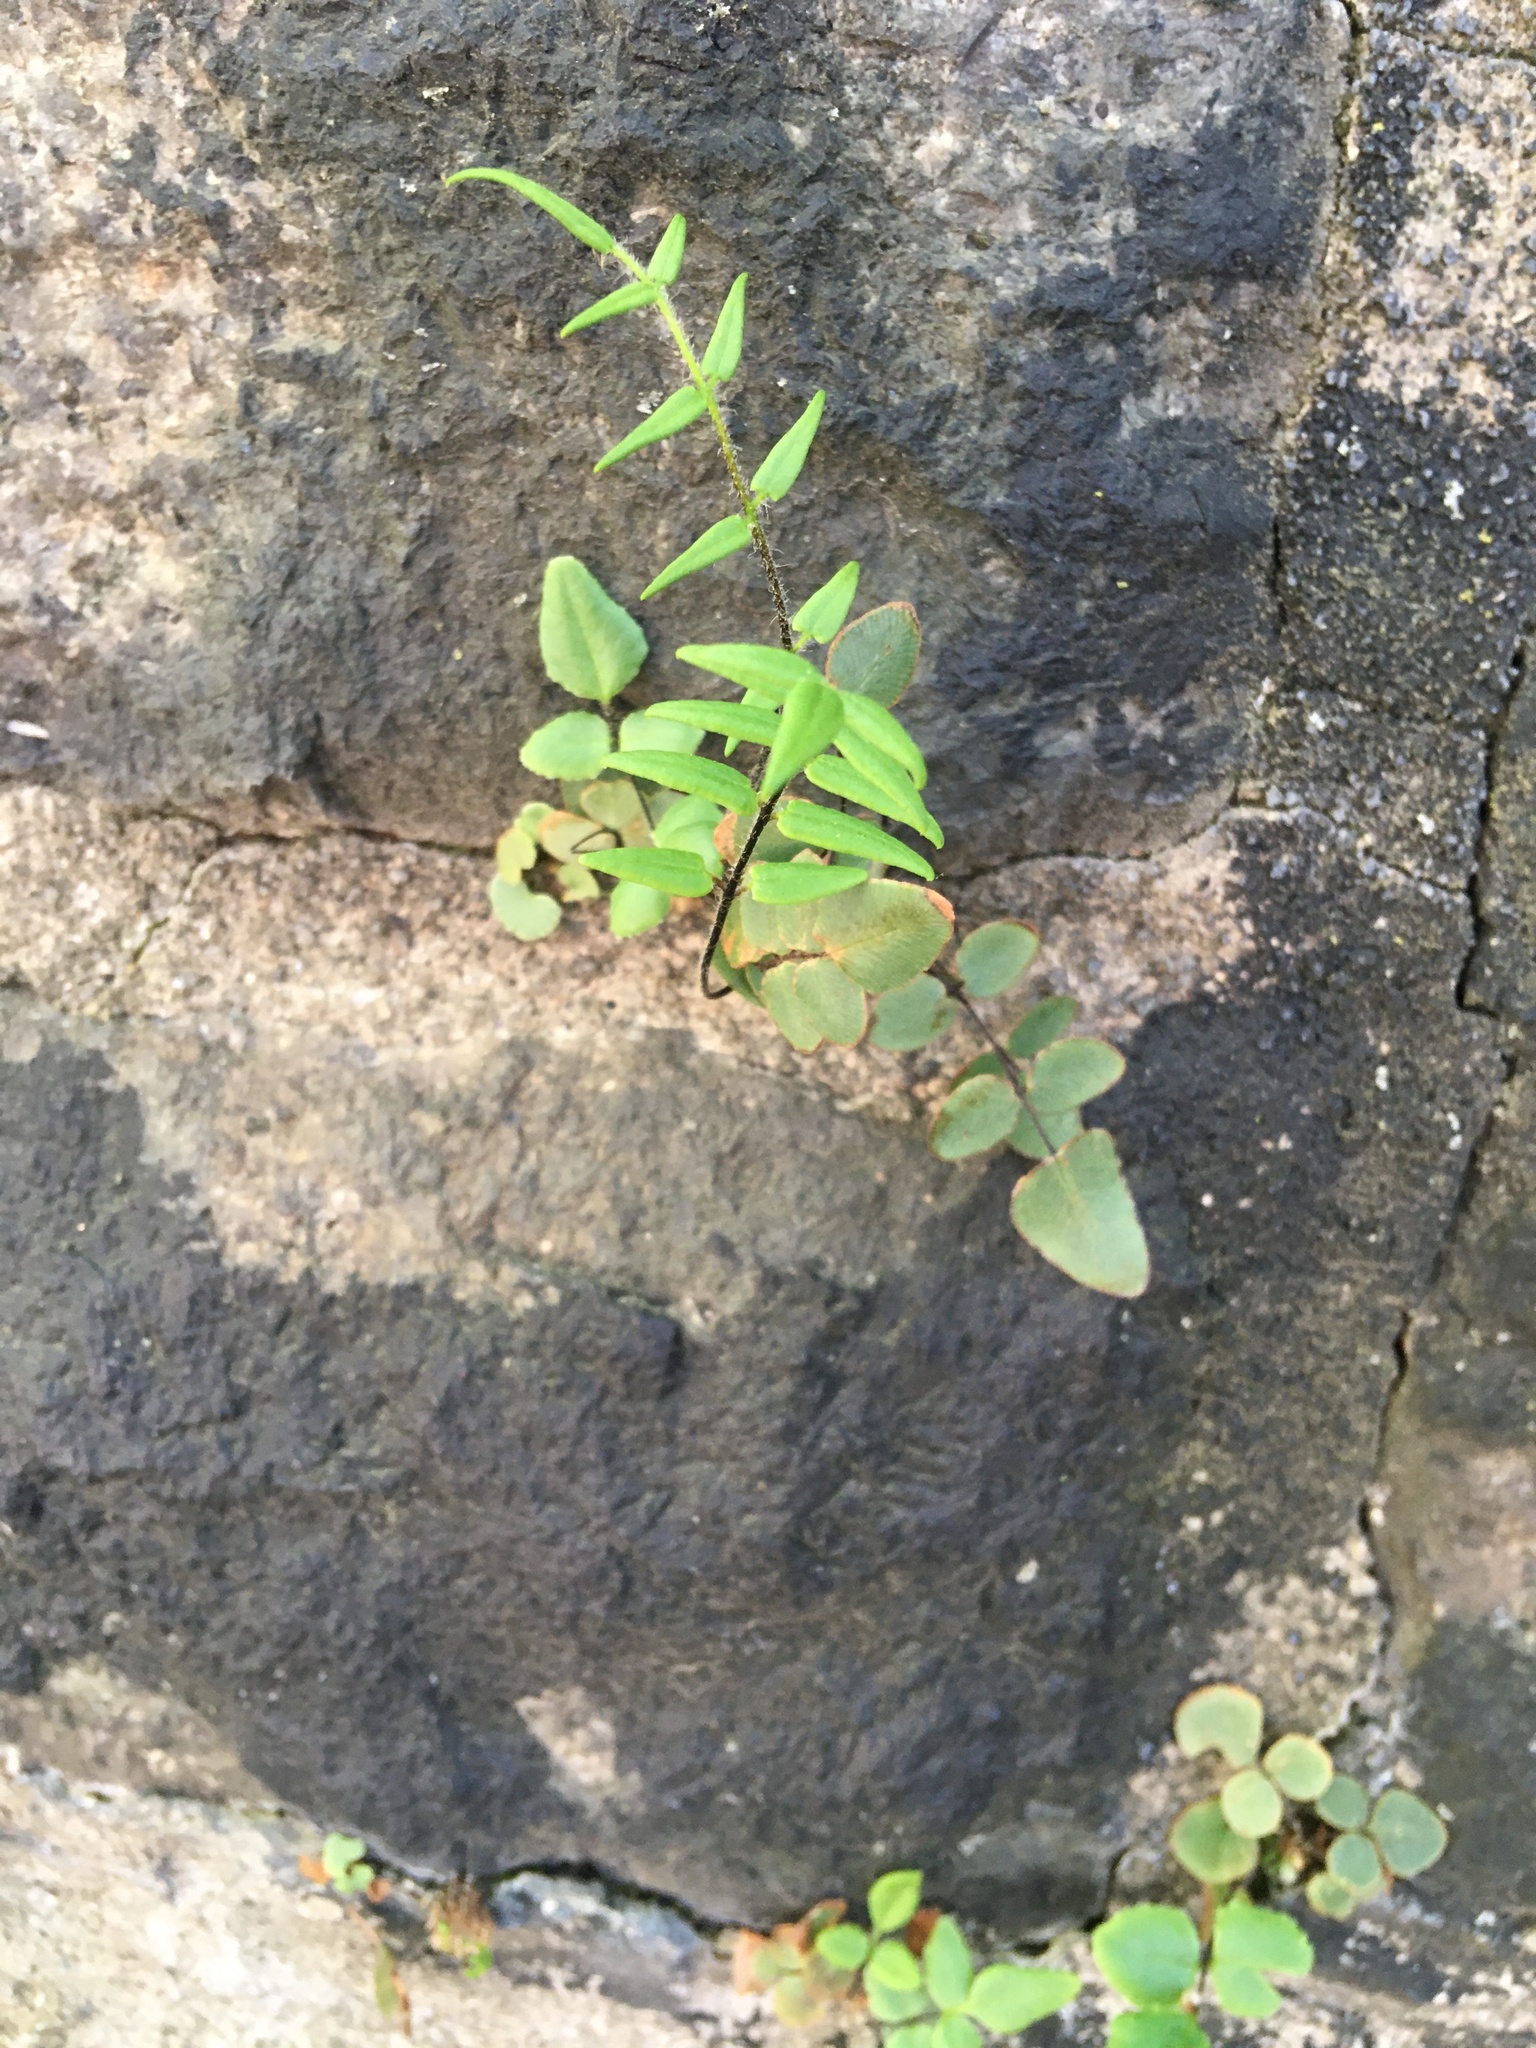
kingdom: Plantae
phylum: Tracheophyta
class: Polypodiopsida
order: Polypodiales
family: Pteridaceae
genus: Pellaea
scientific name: Pellaea atropurpurea
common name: Hairy cliffbrake
